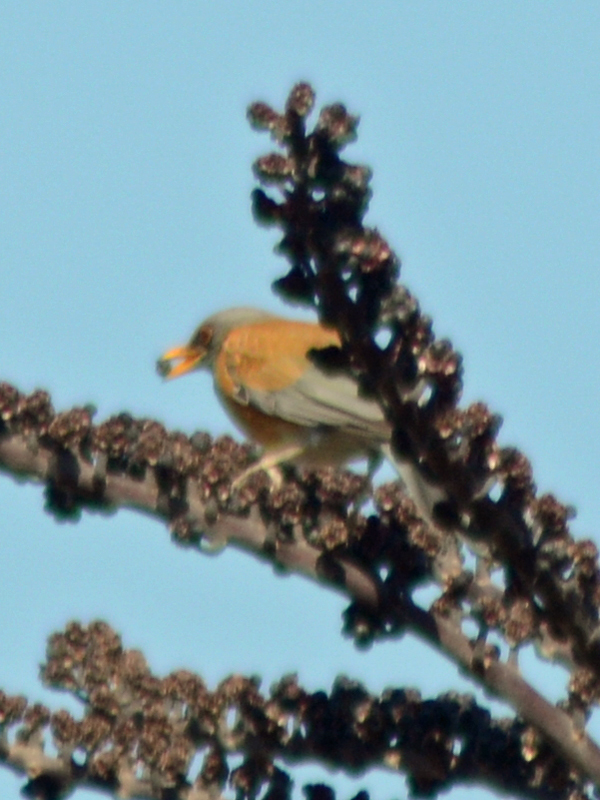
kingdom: Animalia
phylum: Chordata
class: Aves
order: Passeriformes
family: Turdidae
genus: Turdus
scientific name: Turdus rufopalliatus
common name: Rufous-backed robin
